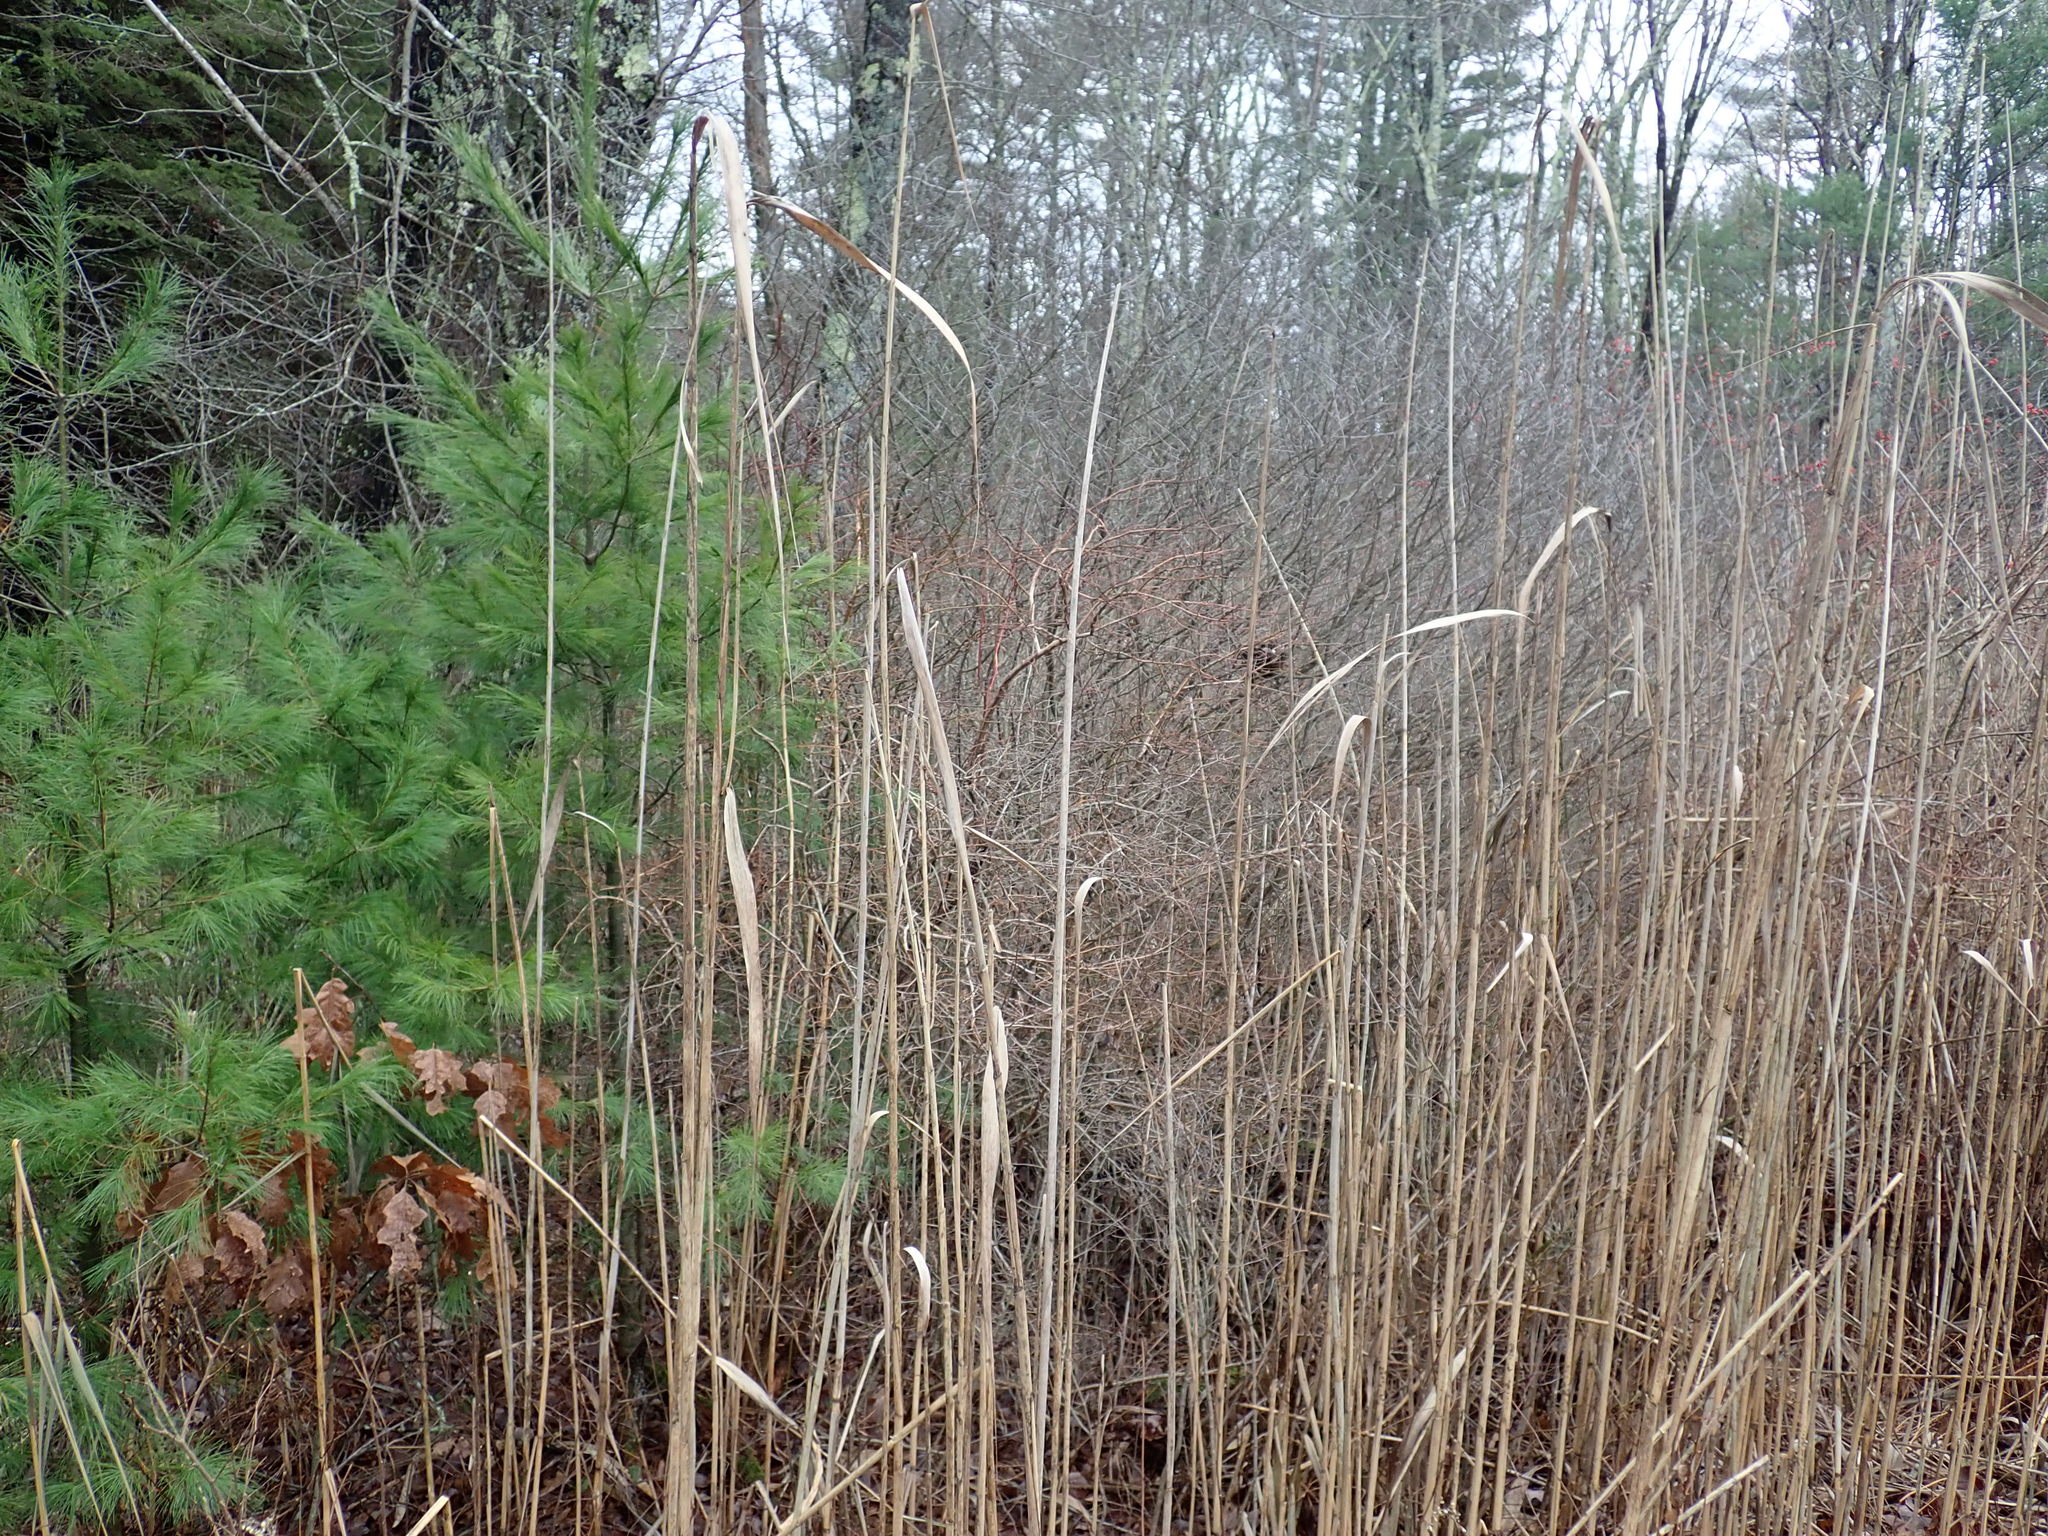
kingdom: Plantae
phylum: Tracheophyta
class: Liliopsida
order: Poales
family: Poaceae
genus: Phragmites
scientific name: Phragmites australis
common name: Common reed
